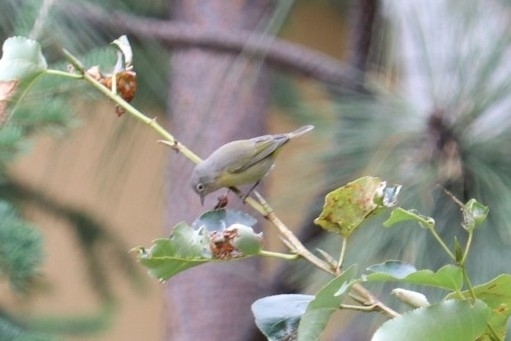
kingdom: Animalia
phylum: Chordata
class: Aves
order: Passeriformes
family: Parulidae
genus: Leiothlypis
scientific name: Leiothlypis ruficapilla
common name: Nashville warbler
